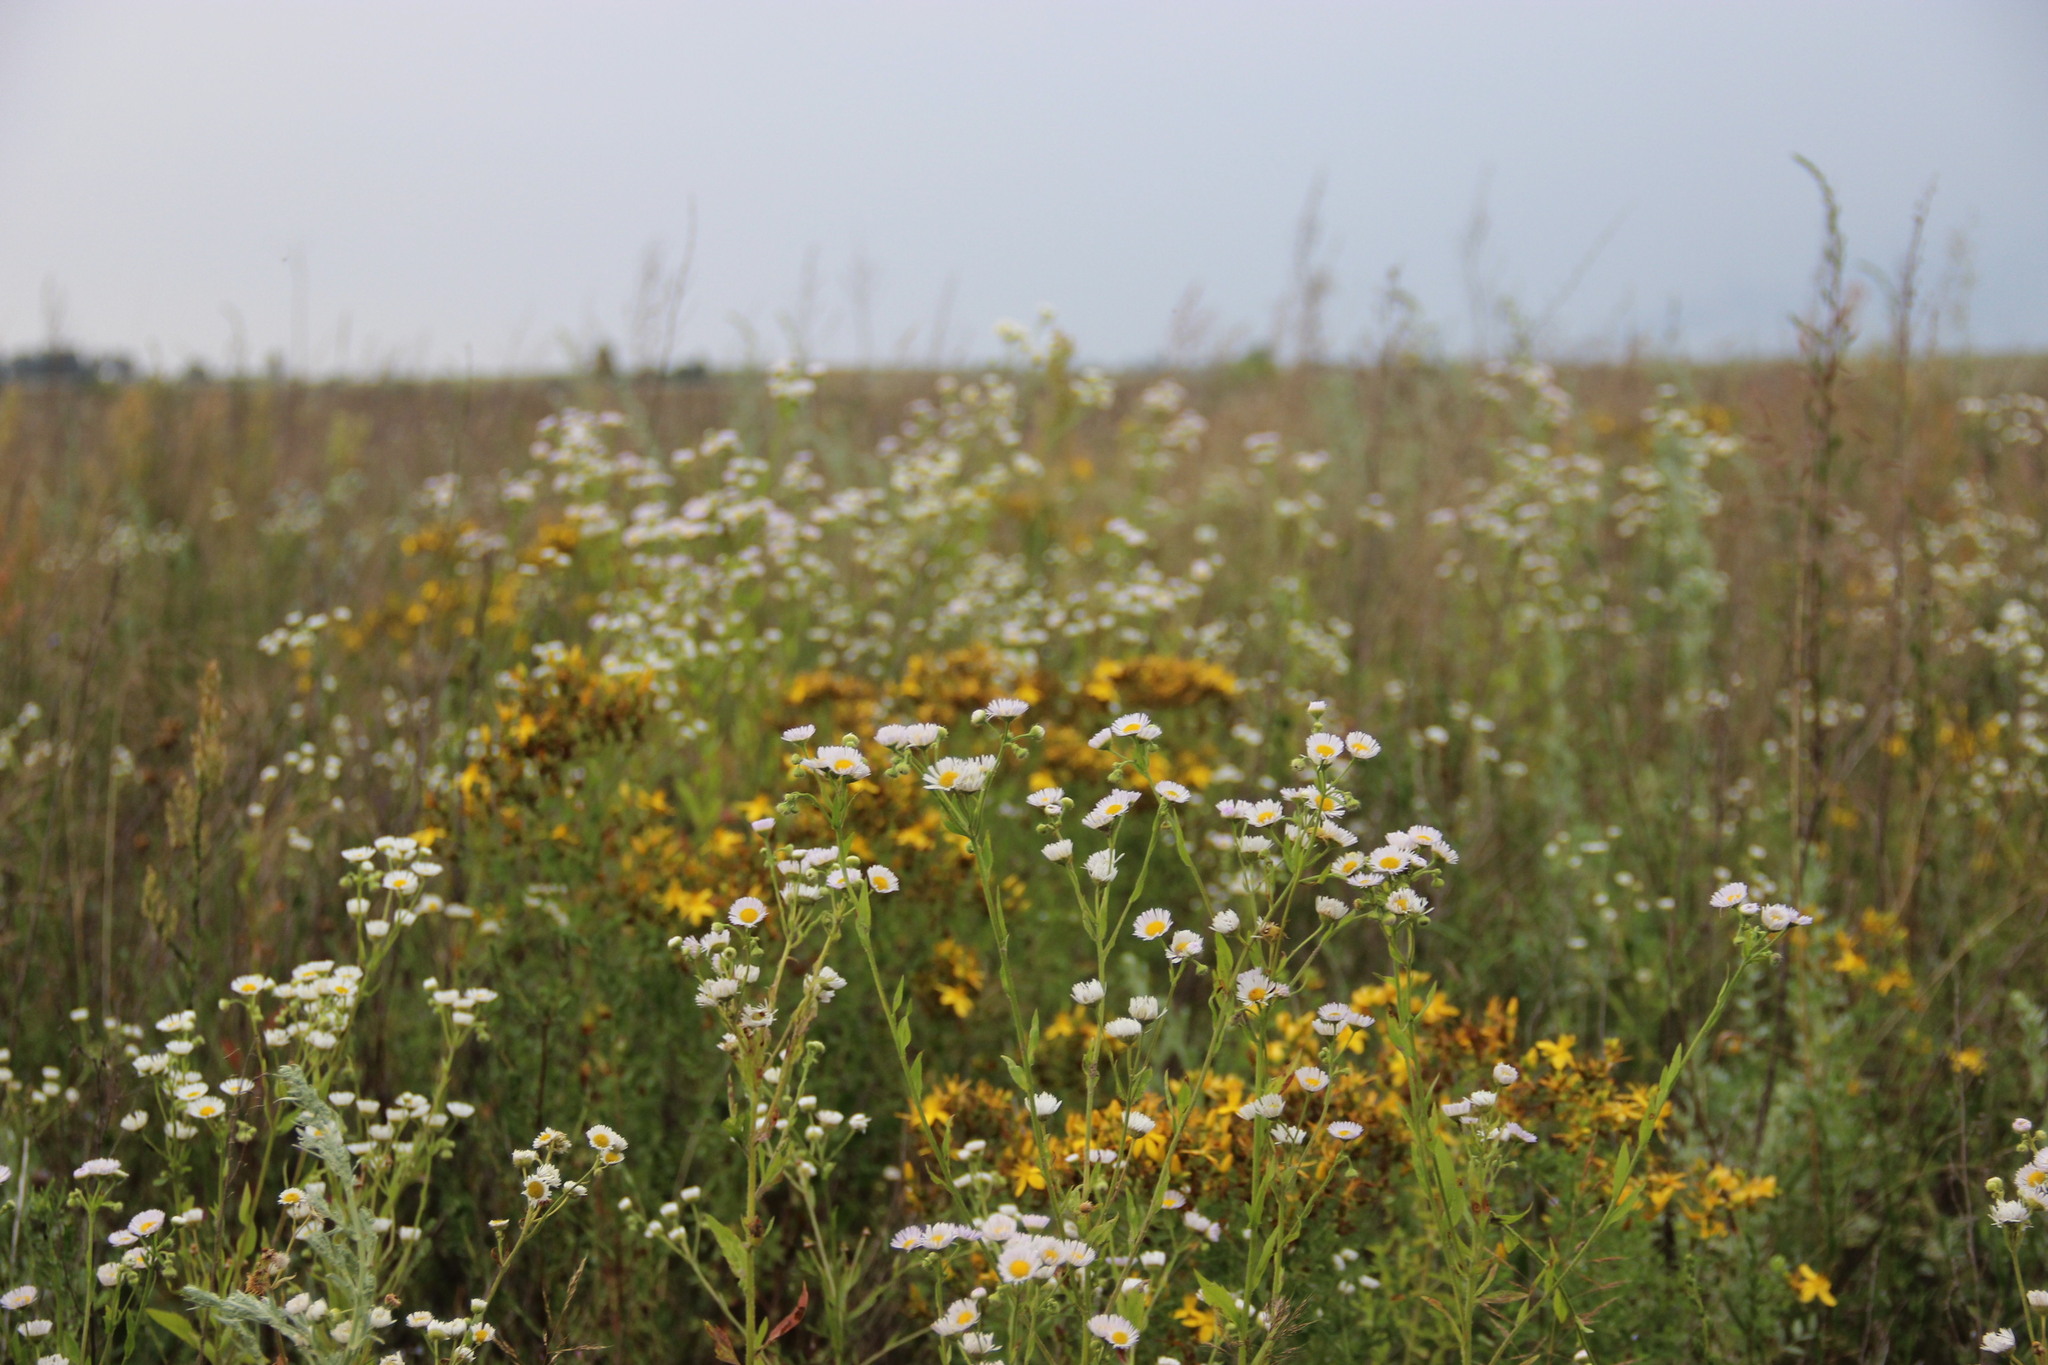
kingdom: Plantae
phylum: Tracheophyta
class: Magnoliopsida
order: Asterales
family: Asteraceae
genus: Erigeron
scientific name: Erigeron annuus
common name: Tall fleabane
